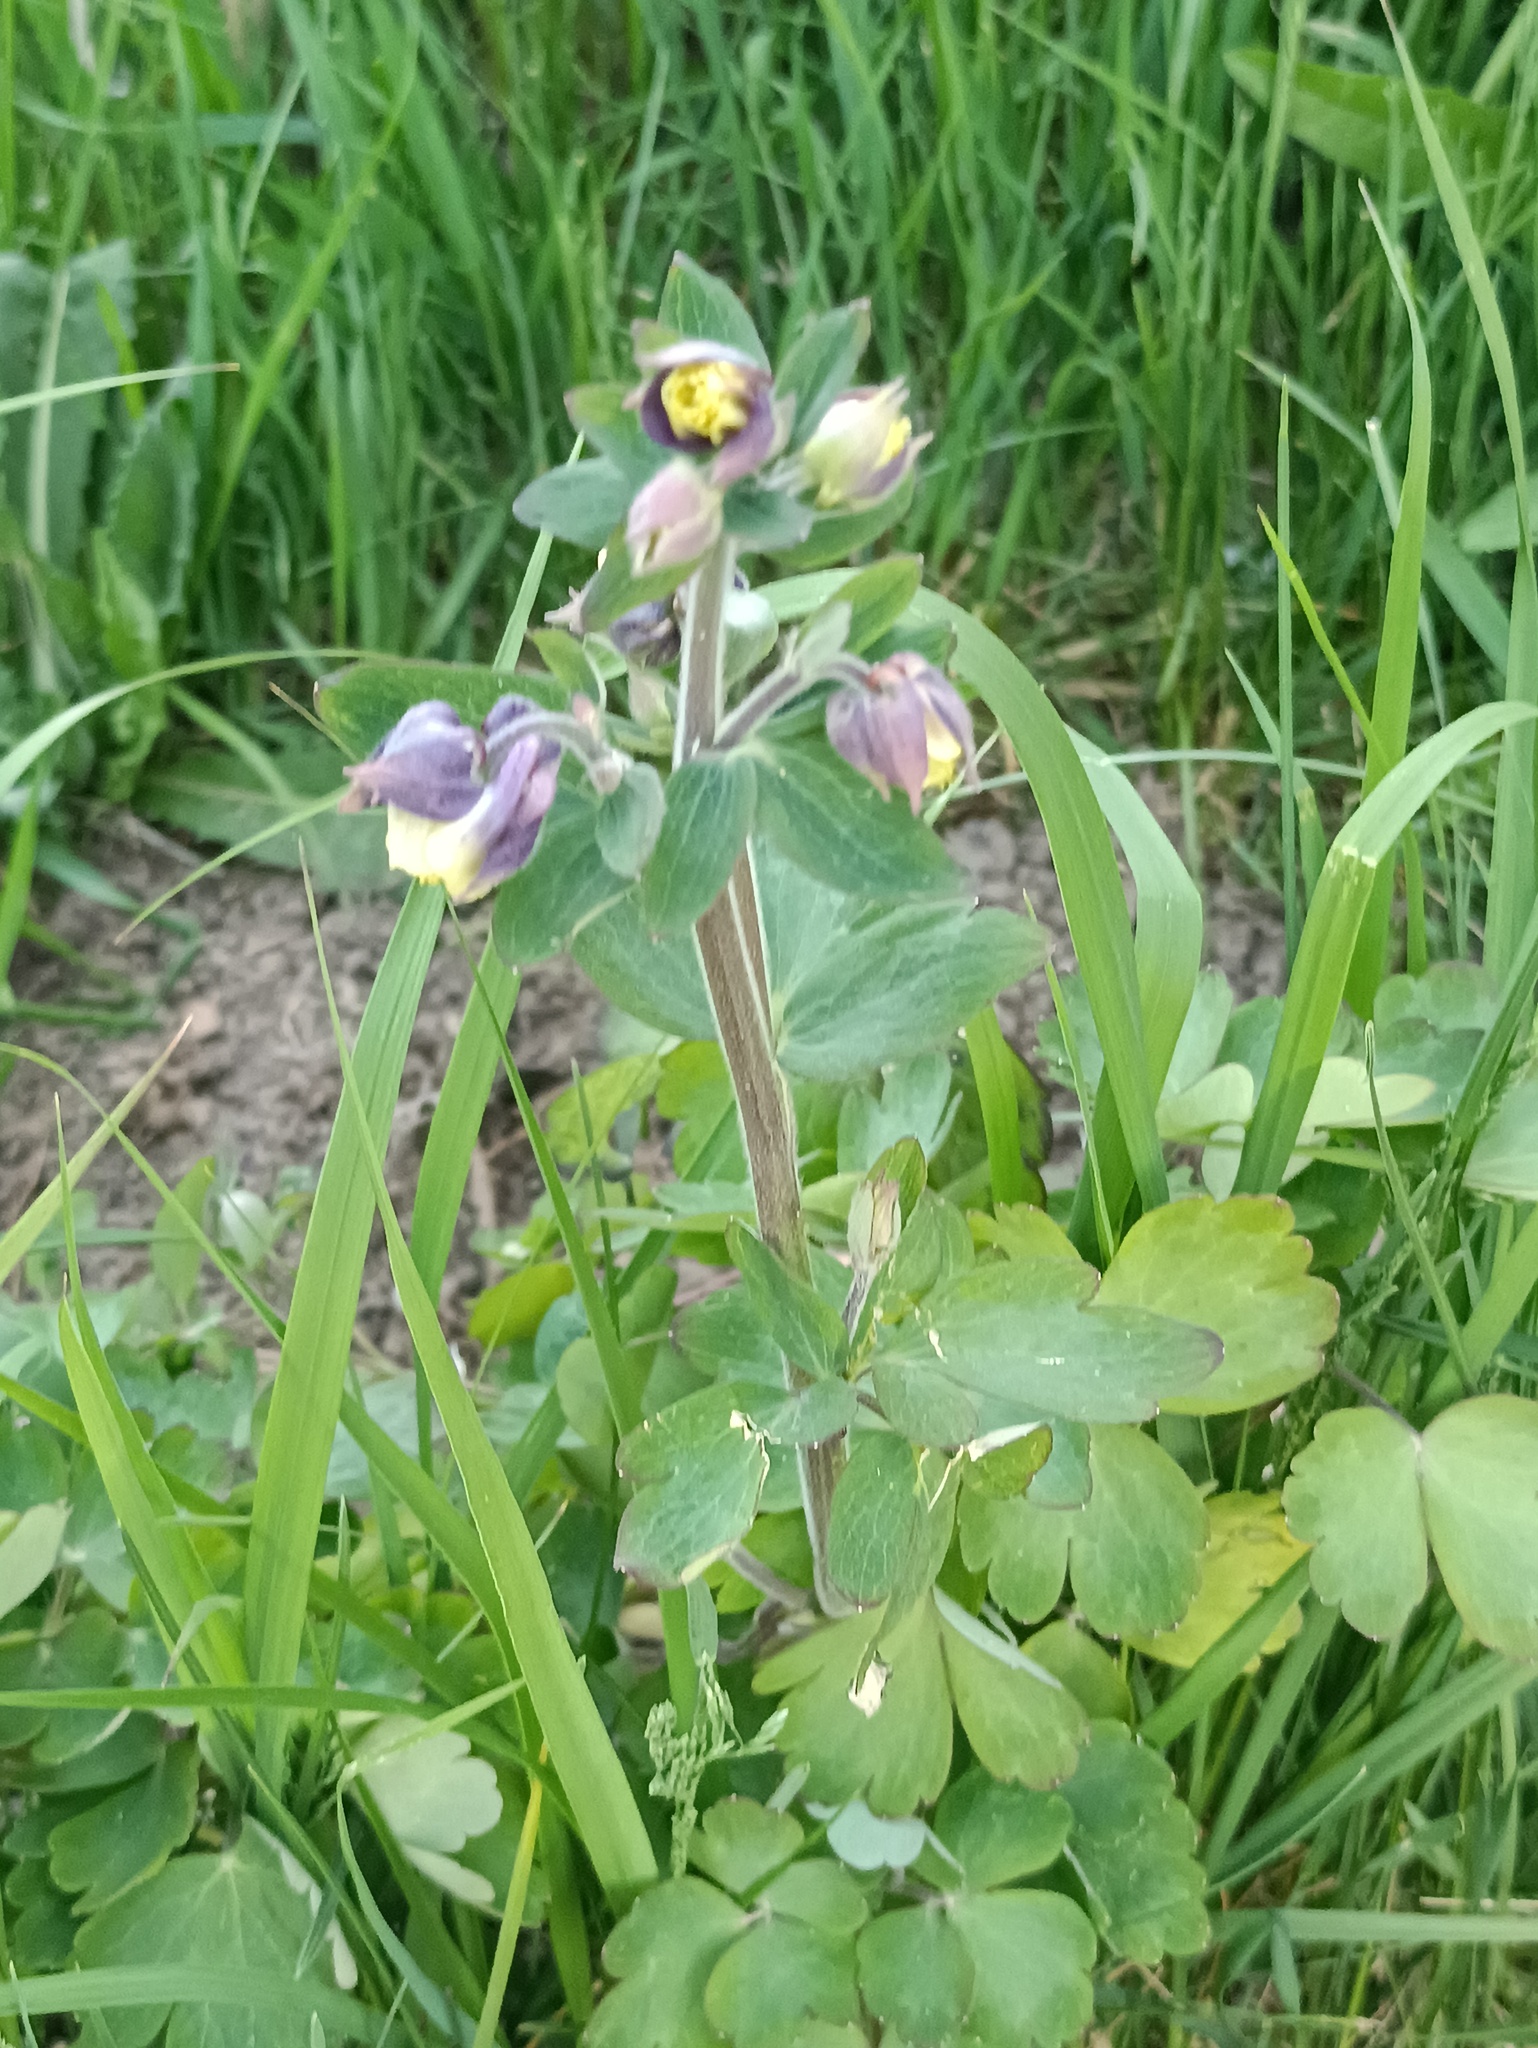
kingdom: Plantae
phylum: Tracheophyta
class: Magnoliopsida
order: Ranunculales
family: Ranunculaceae
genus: Aquilegia
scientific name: Aquilegia vulgaris
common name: Columbine
